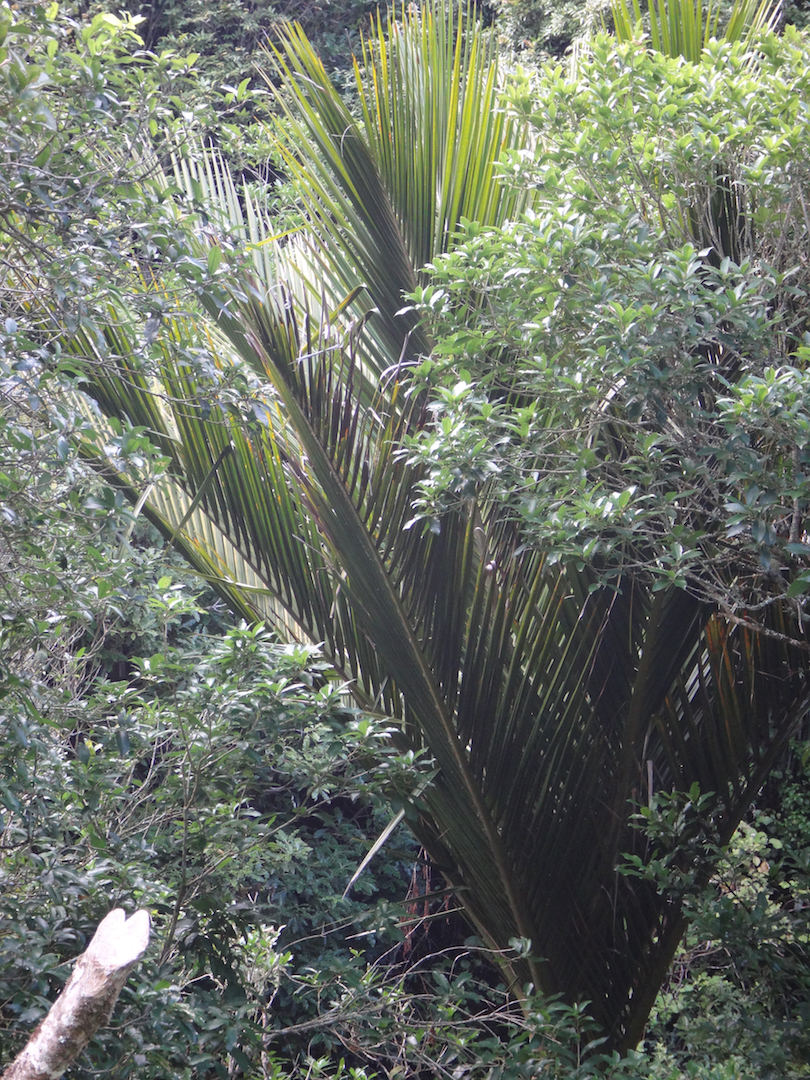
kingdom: Plantae
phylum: Tracheophyta
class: Liliopsida
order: Arecales
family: Arecaceae
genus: Rhopalostylis
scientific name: Rhopalostylis sapida
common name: Feather-duster palm
